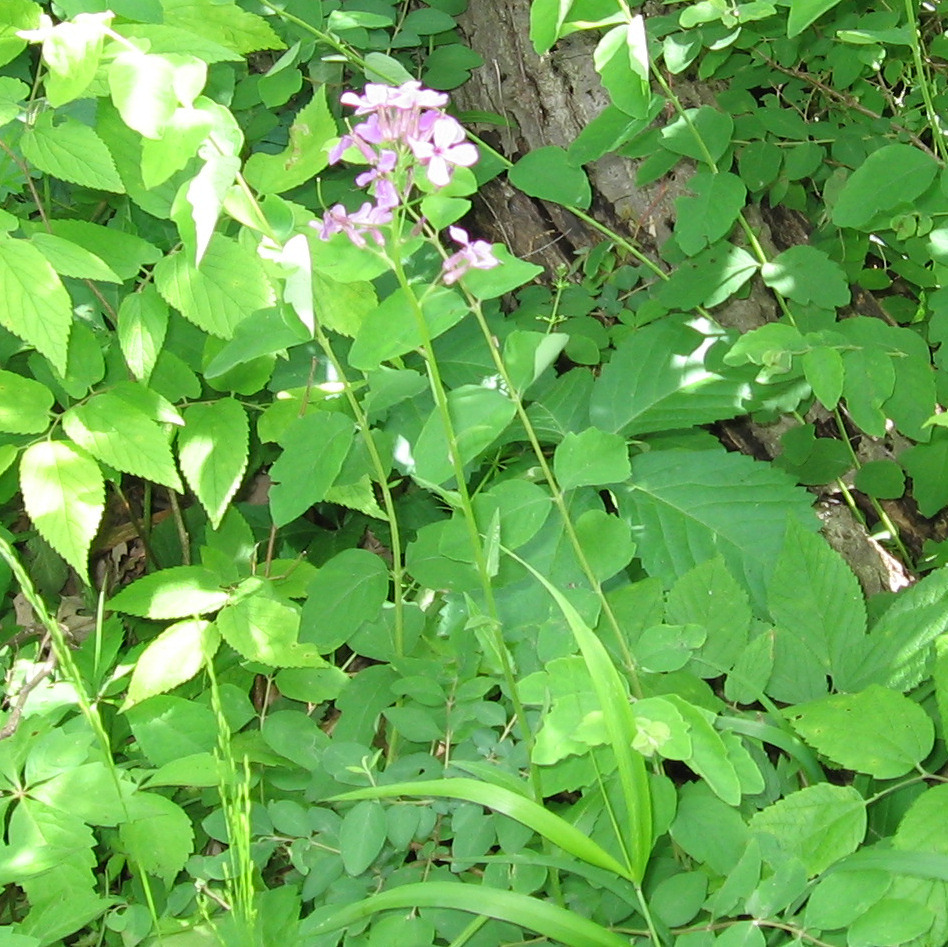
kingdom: Plantae
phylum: Tracheophyta
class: Magnoliopsida
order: Brassicales
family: Brassicaceae
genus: Hesperis
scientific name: Hesperis matronalis
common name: Dame's-violet
